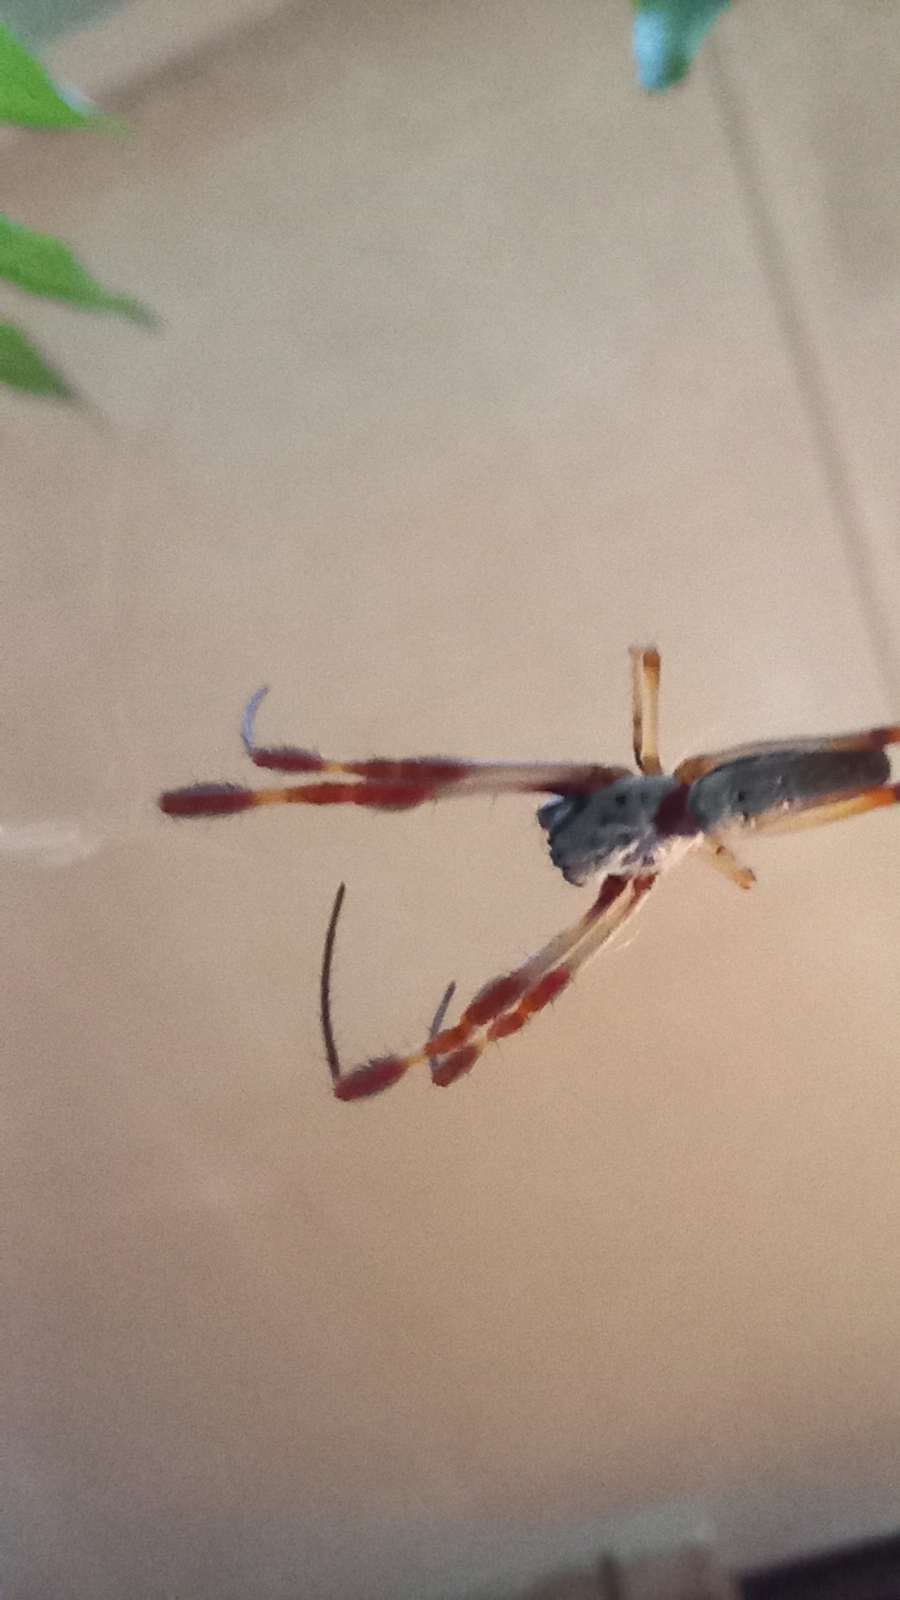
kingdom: Animalia
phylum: Arthropoda
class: Arachnida
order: Araneae
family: Araneidae
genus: Trichonephila
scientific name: Trichonephila edulis
